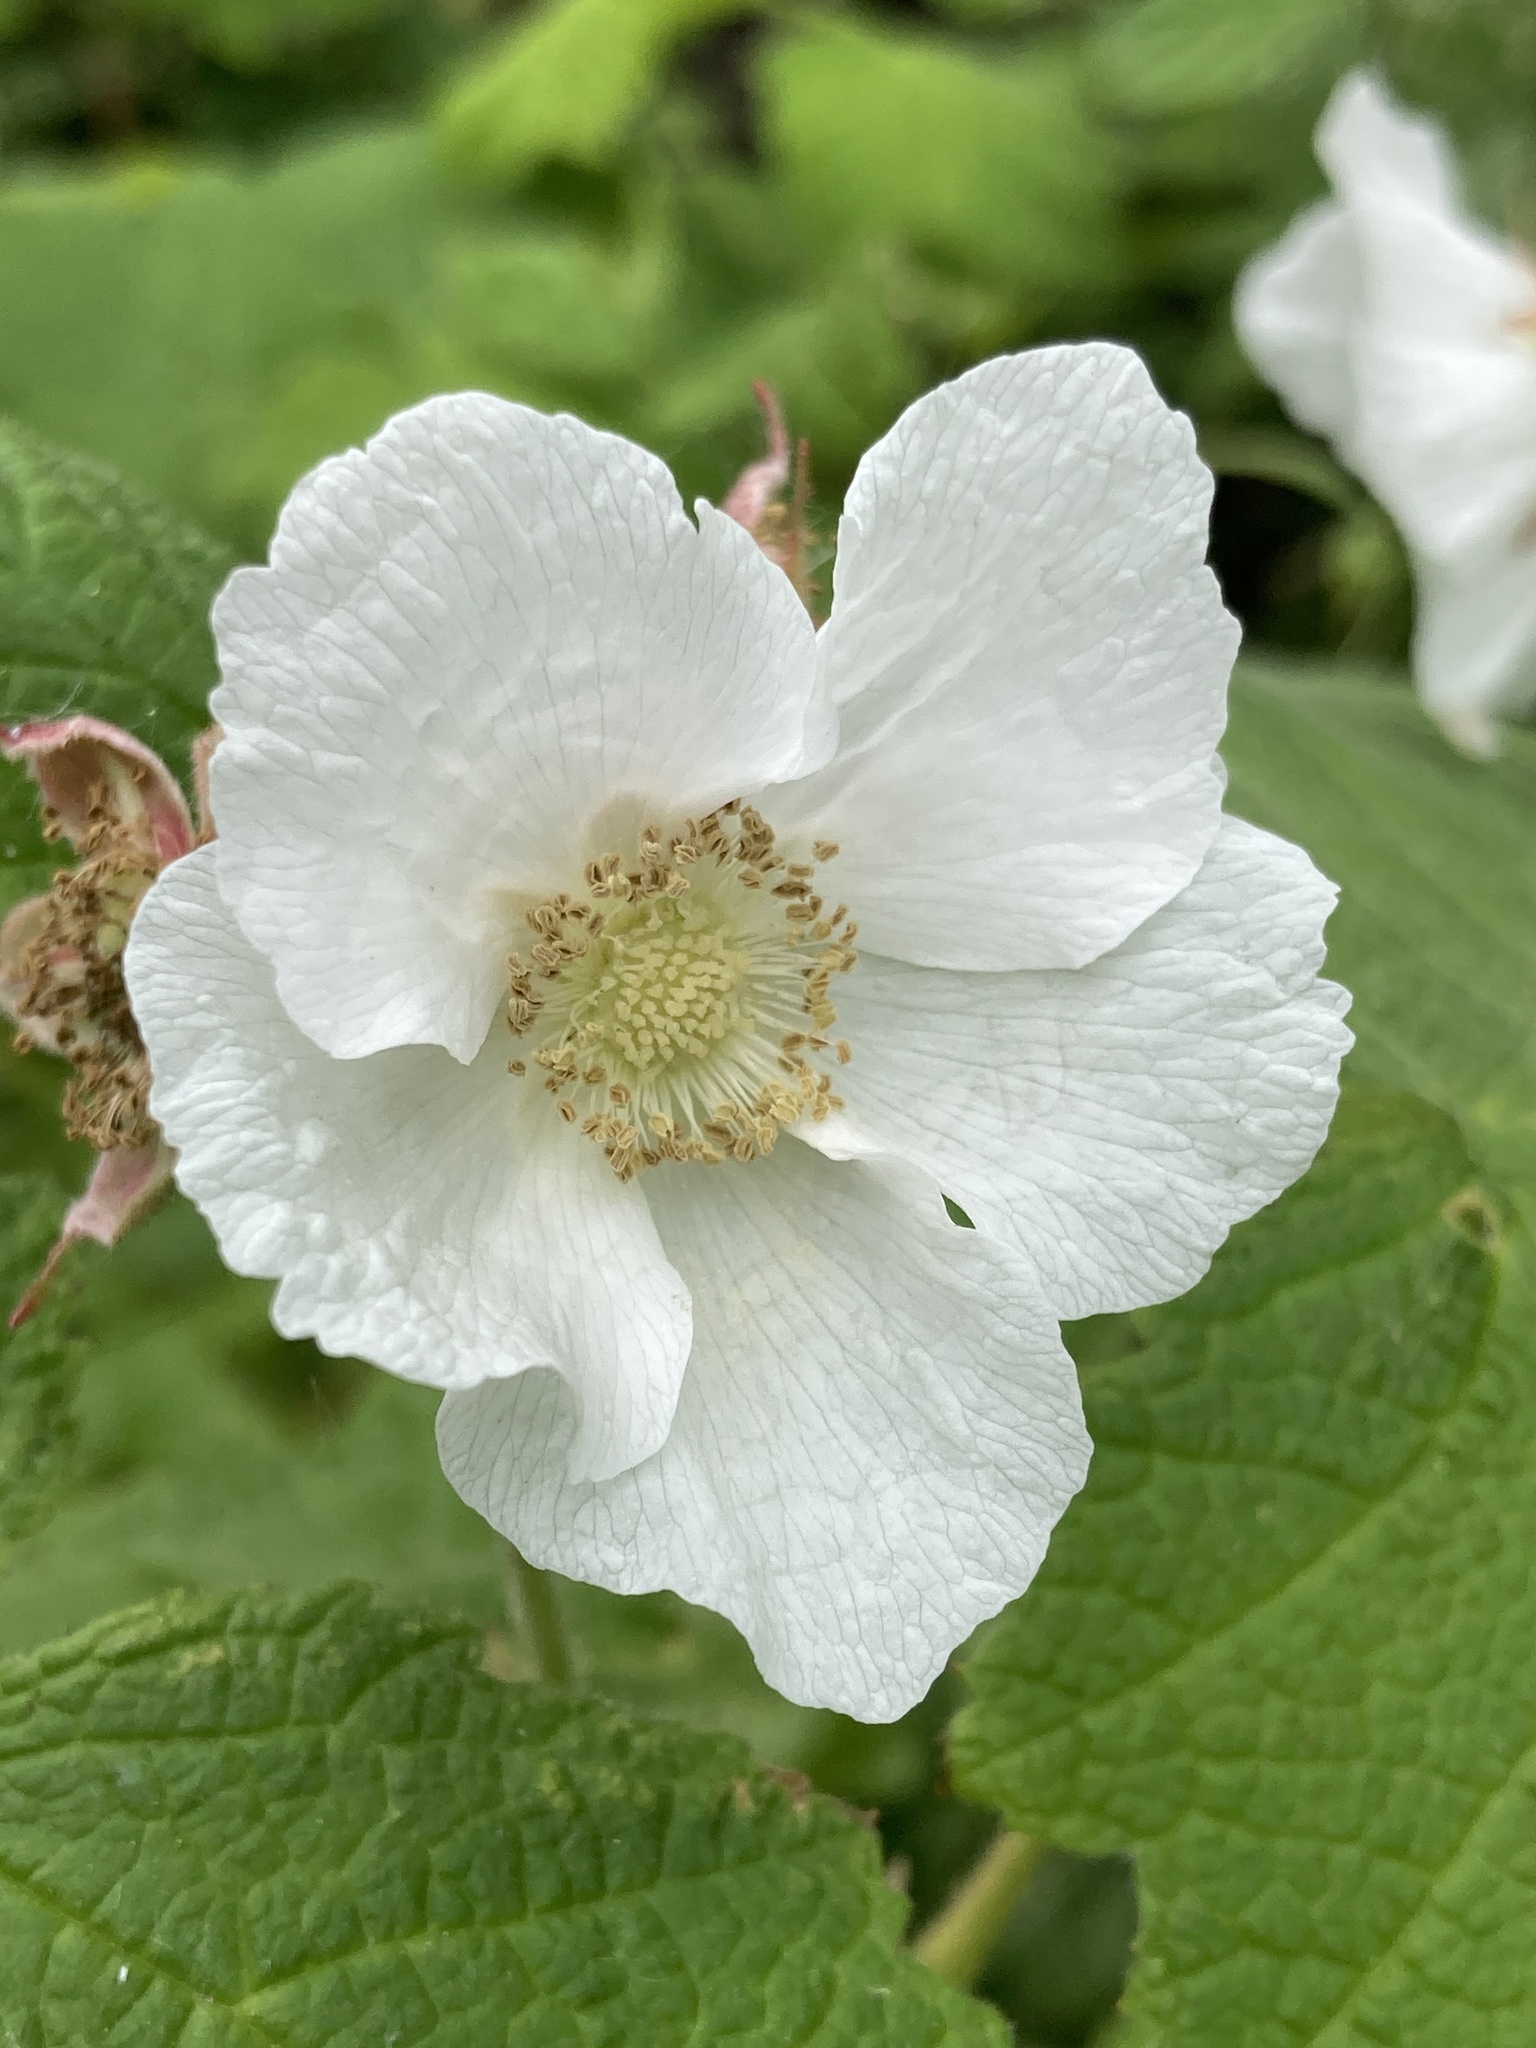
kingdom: Plantae
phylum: Tracheophyta
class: Magnoliopsida
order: Rosales
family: Rosaceae
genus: Rubus
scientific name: Rubus parviflorus
